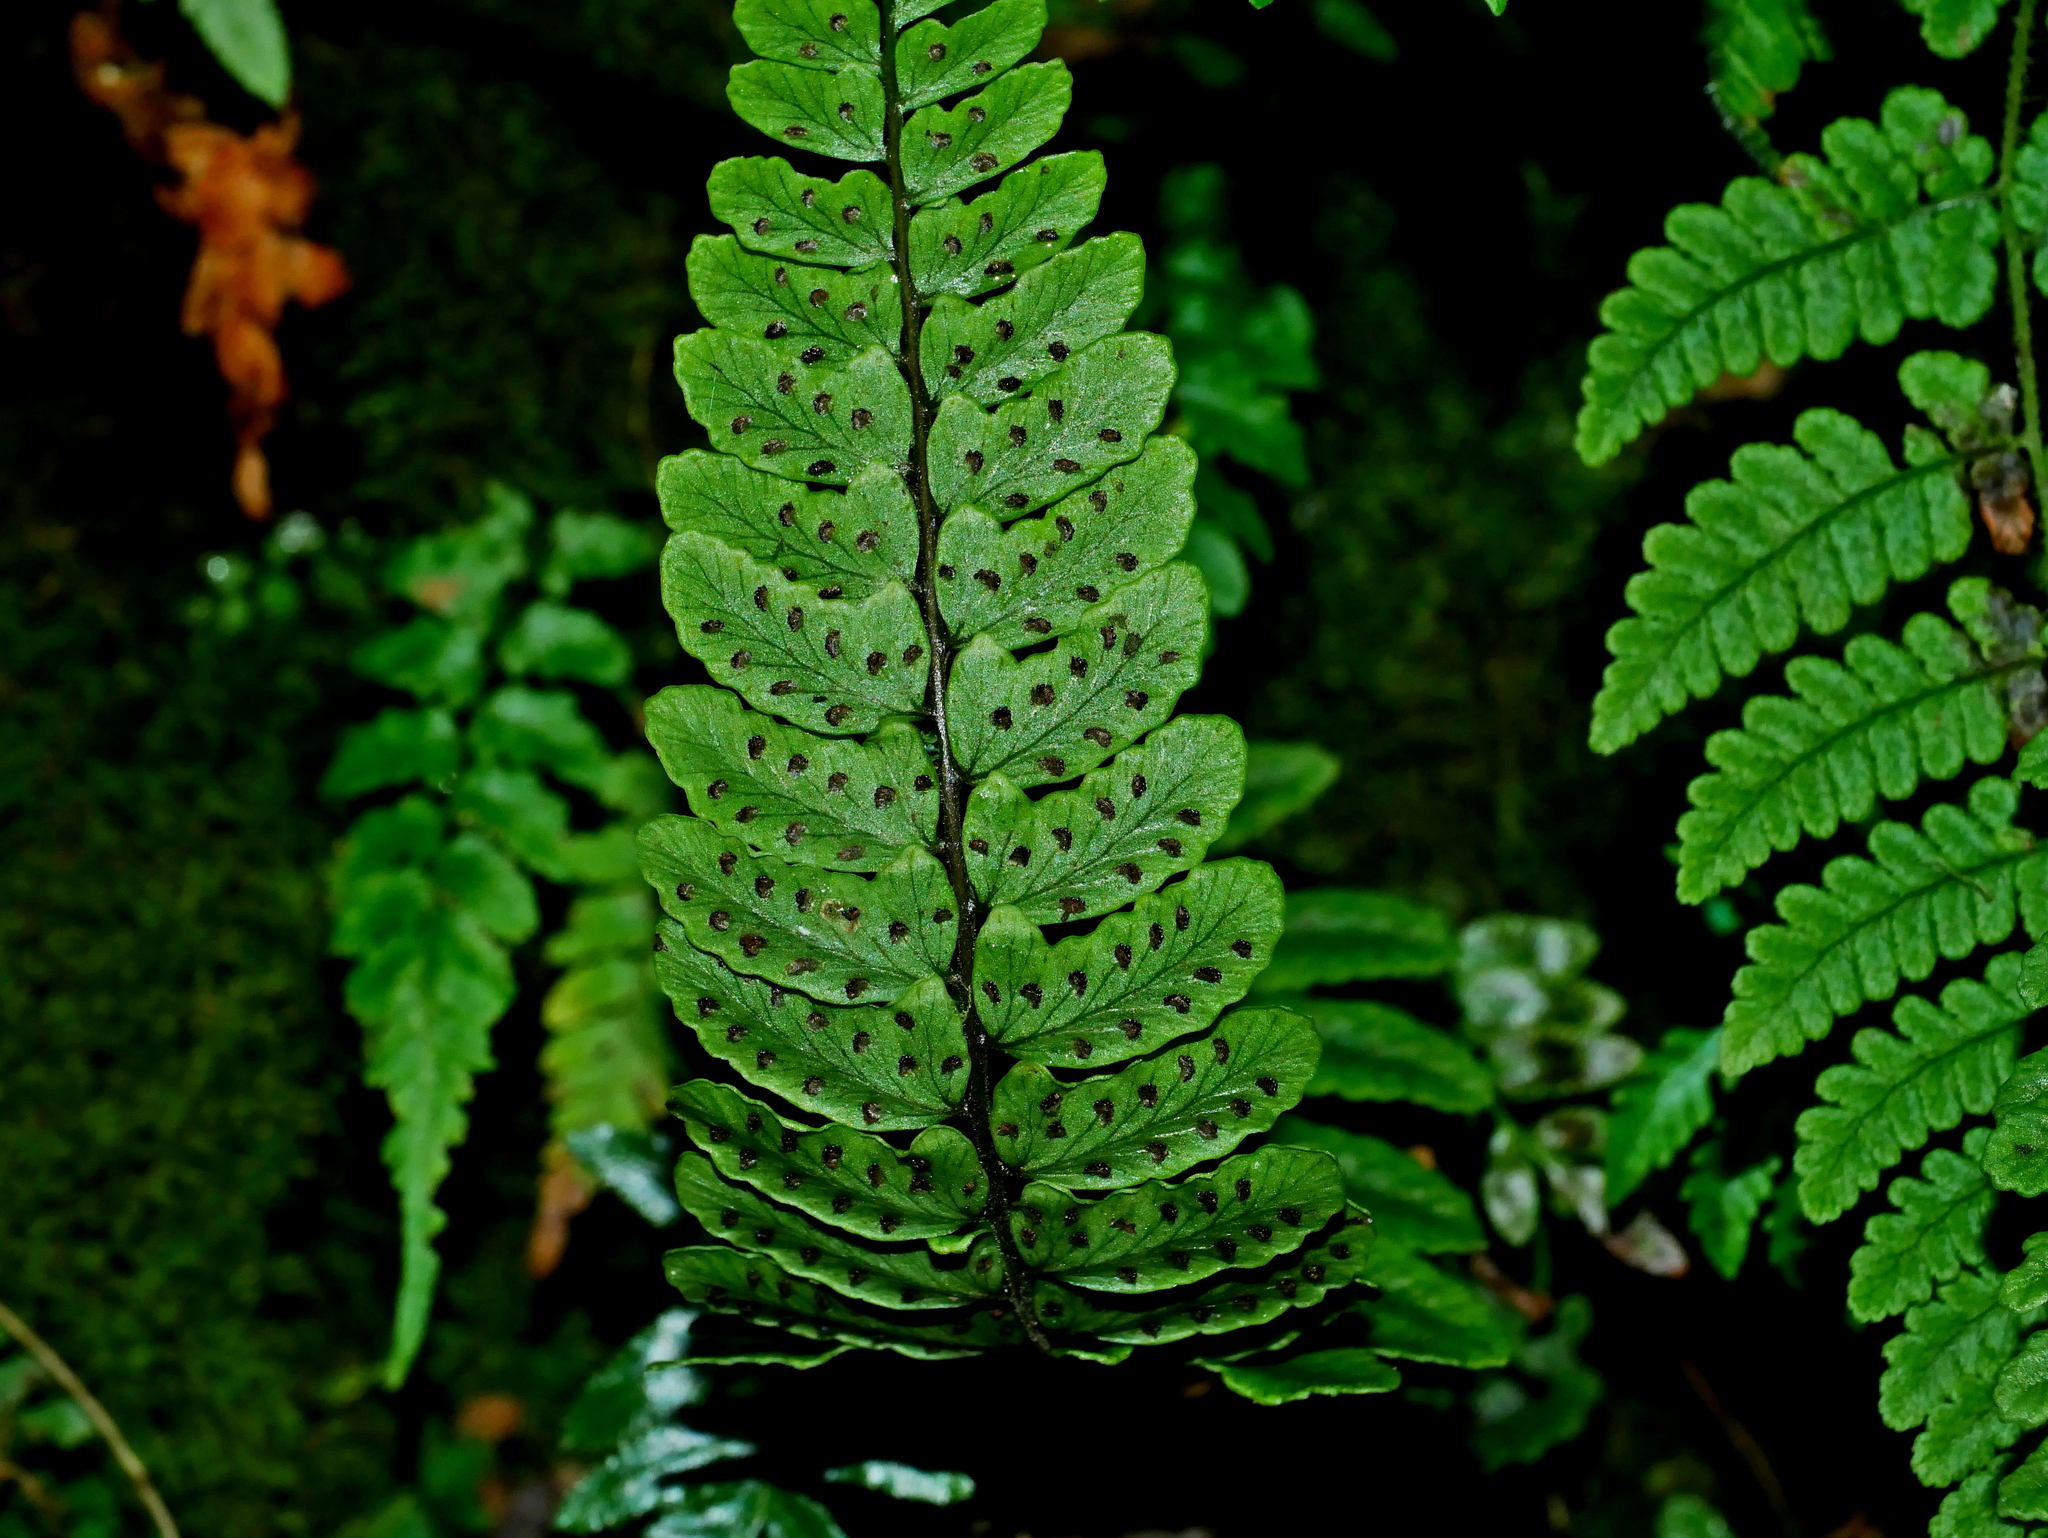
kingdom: Plantae
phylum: Tracheophyta
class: Polypodiopsida
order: Polypodiales
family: Athyriaceae
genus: Athyrium
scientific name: Athyrium nakanoi
